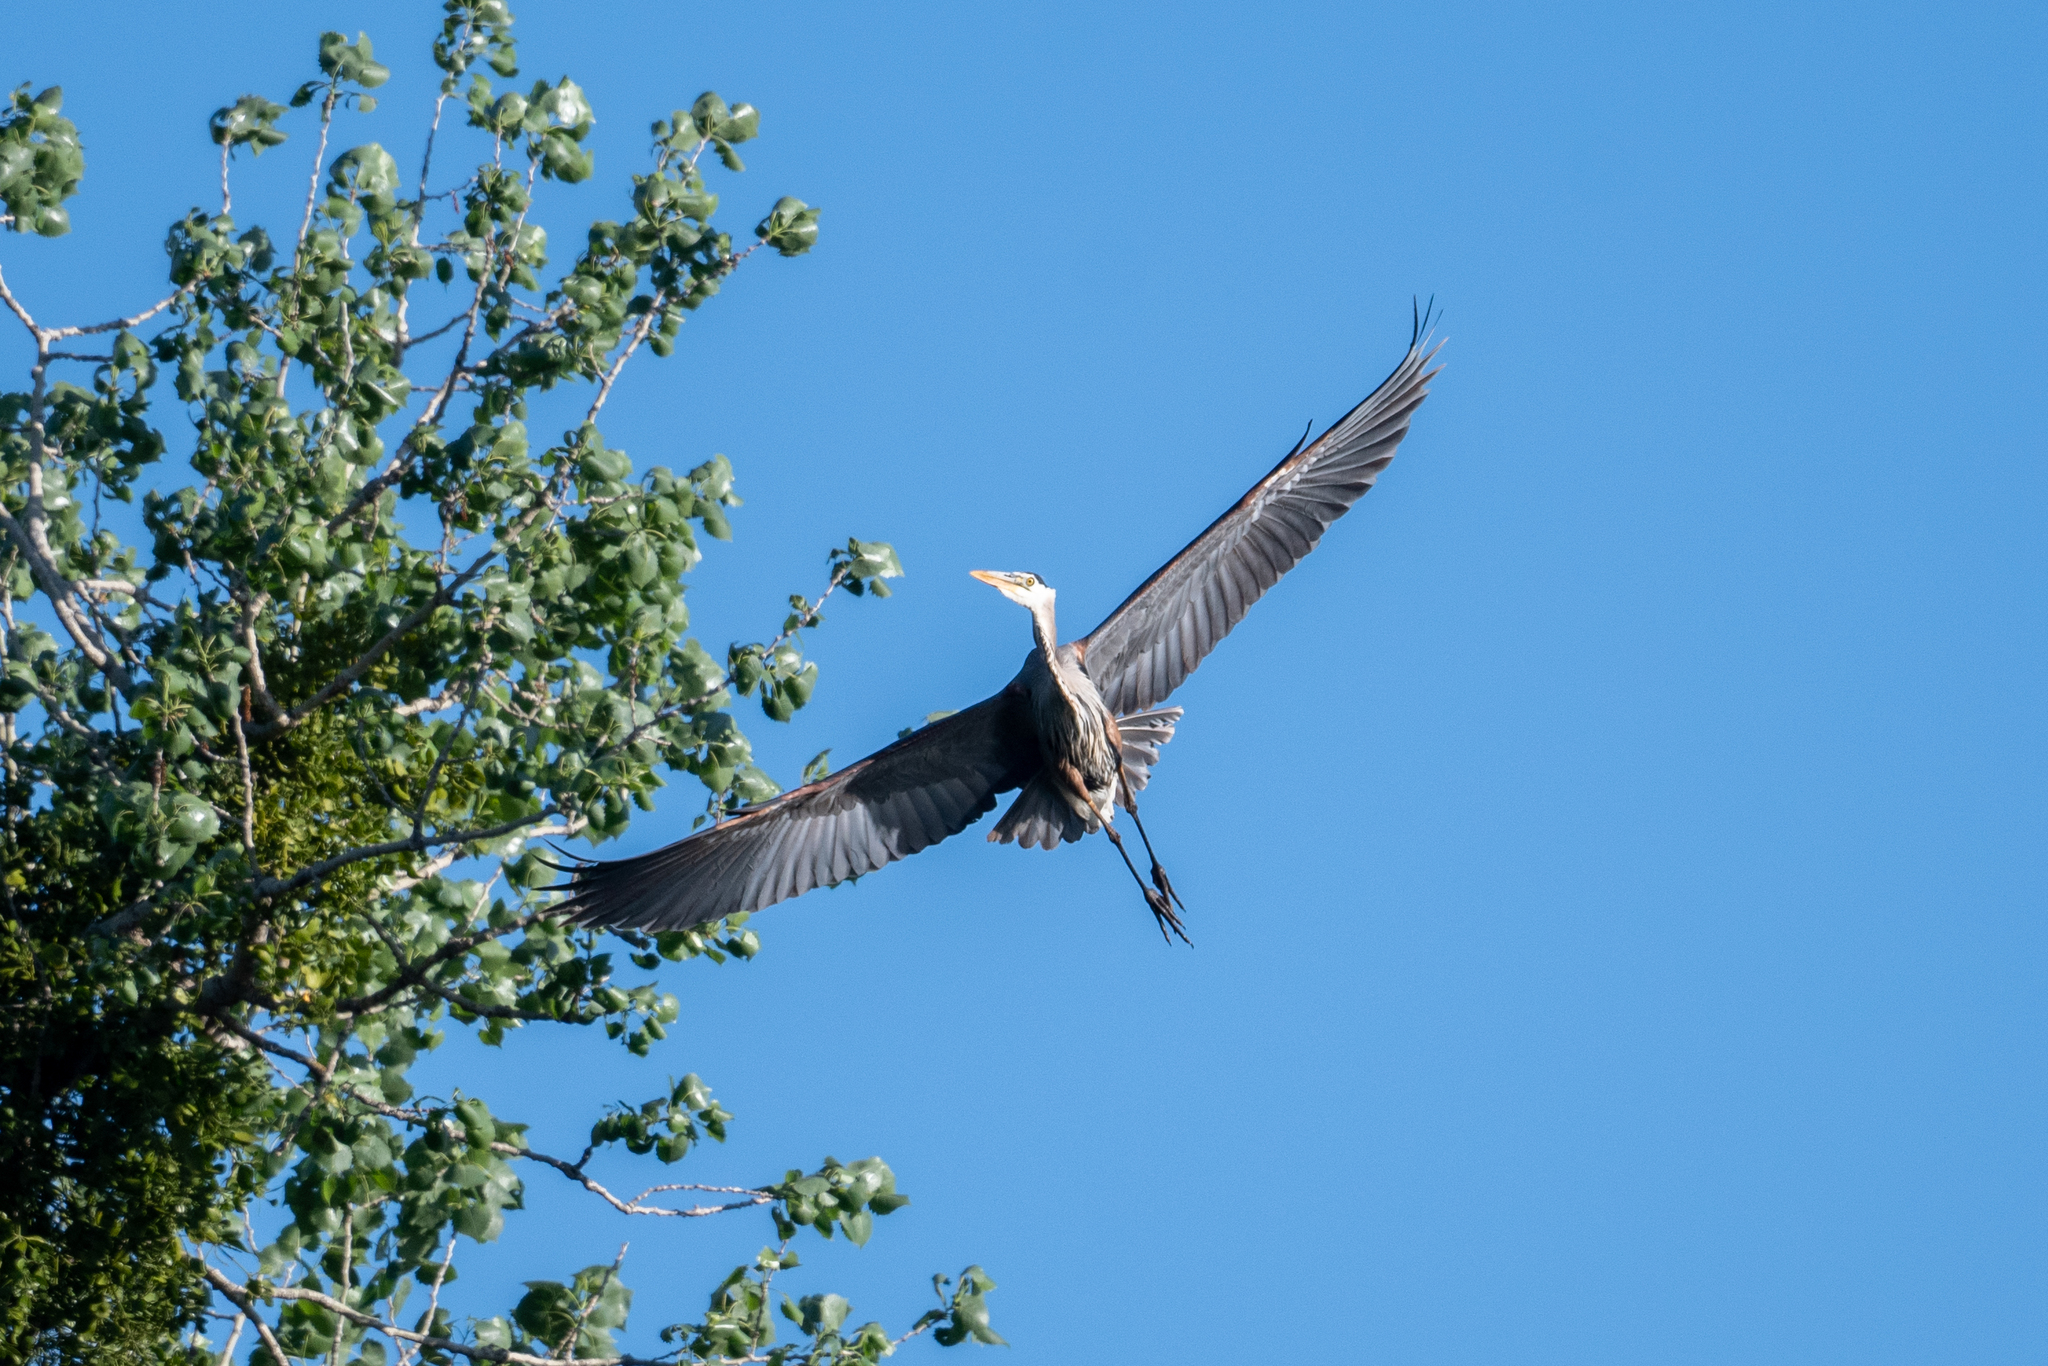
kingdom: Animalia
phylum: Chordata
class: Aves
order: Pelecaniformes
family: Ardeidae
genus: Ardea
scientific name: Ardea herodias
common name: Great blue heron
